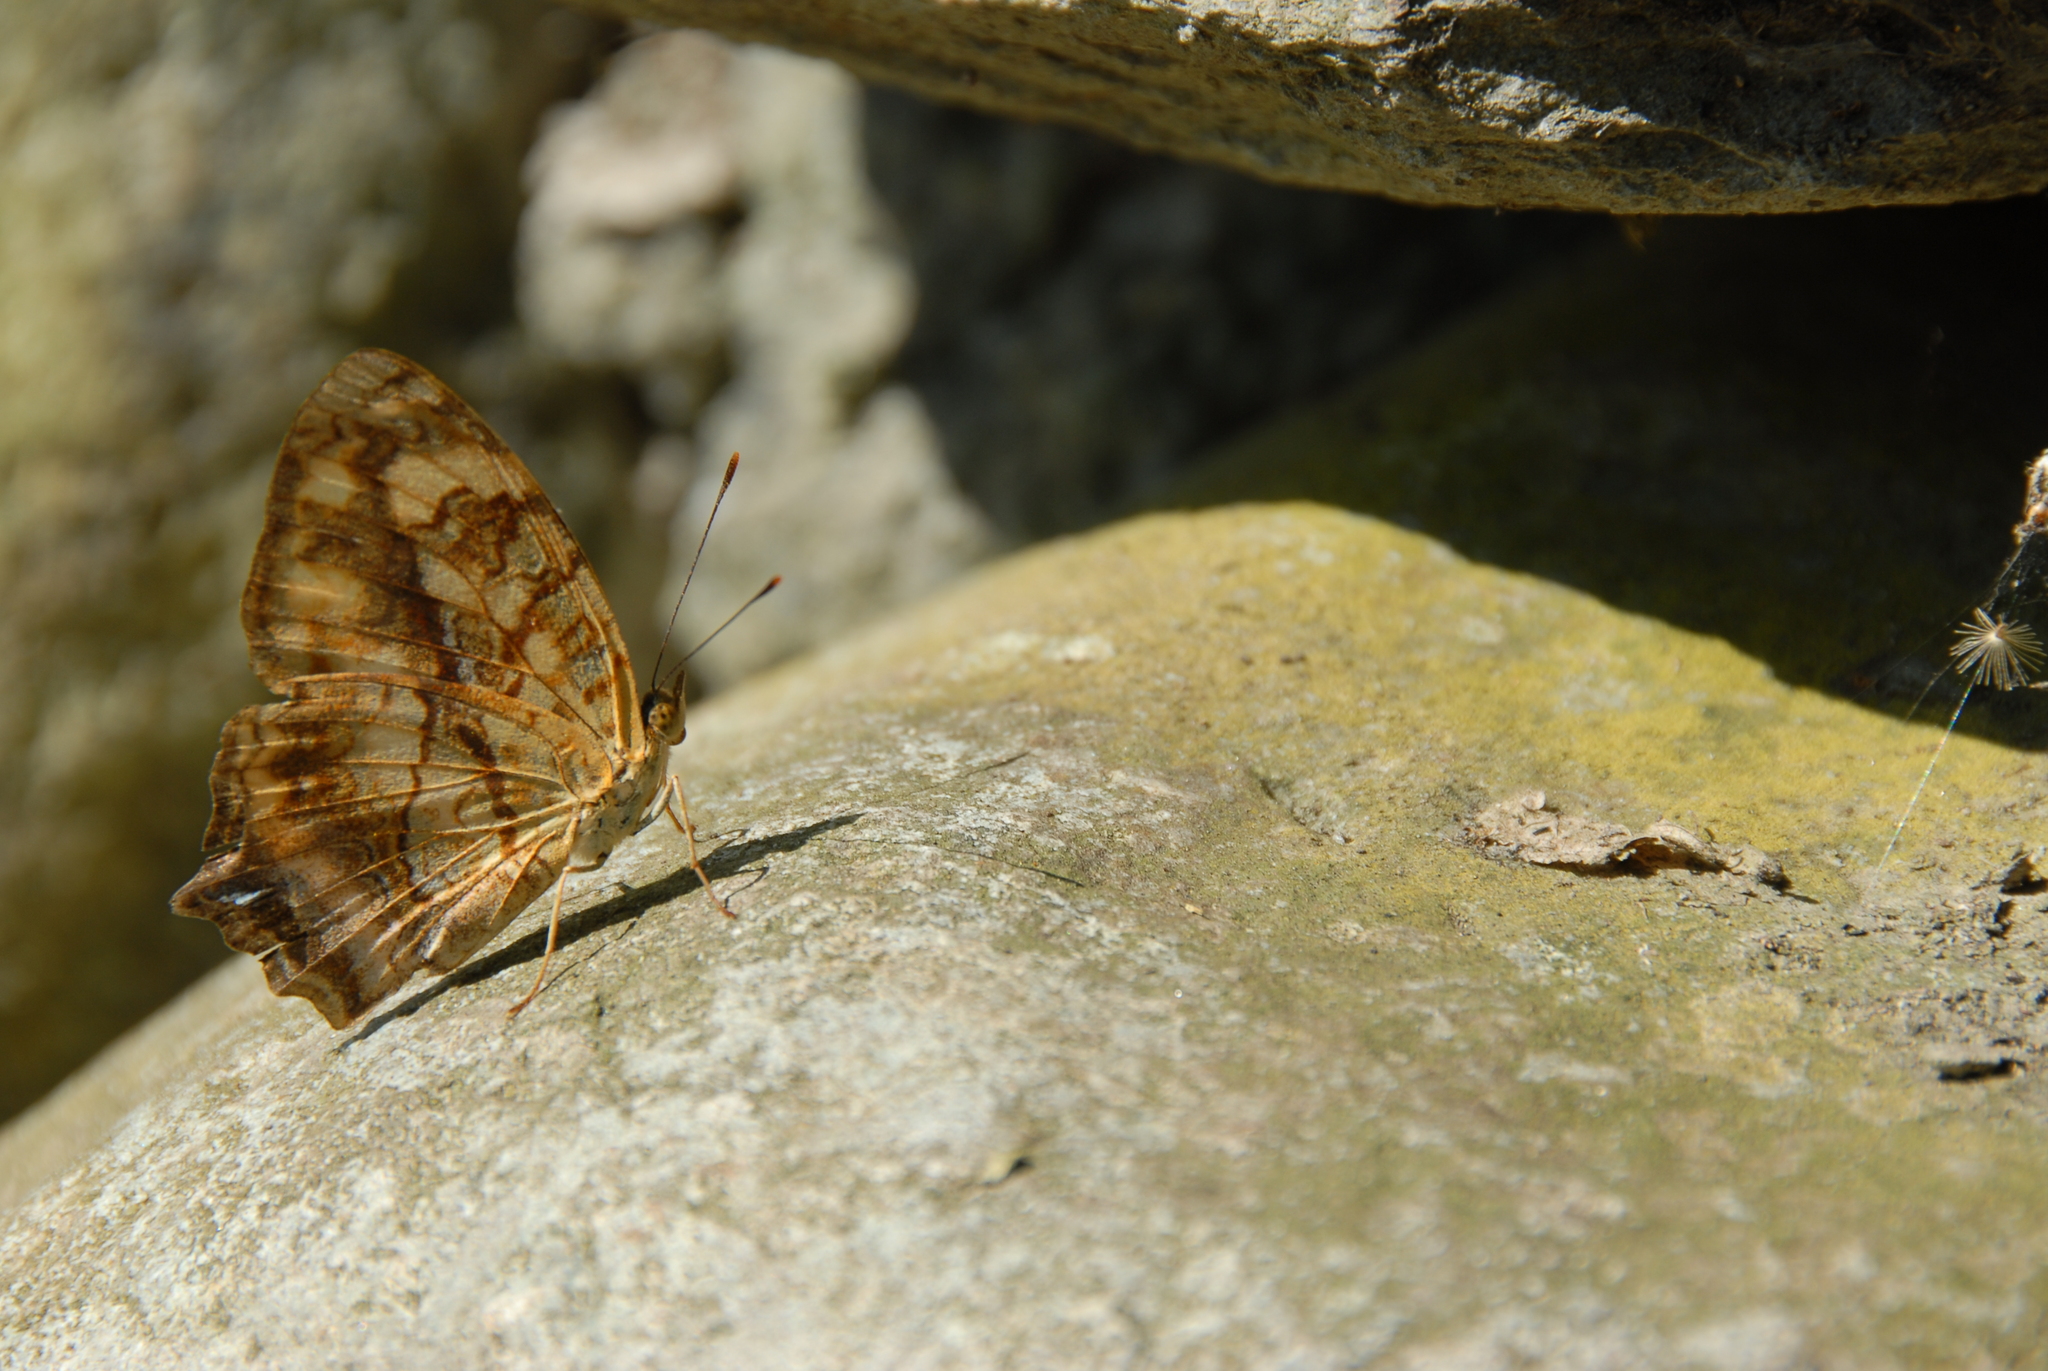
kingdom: Animalia
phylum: Arthropoda
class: Insecta
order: Lepidoptera
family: Nymphalidae
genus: Symbrenthia
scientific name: Symbrenthia hypselis
